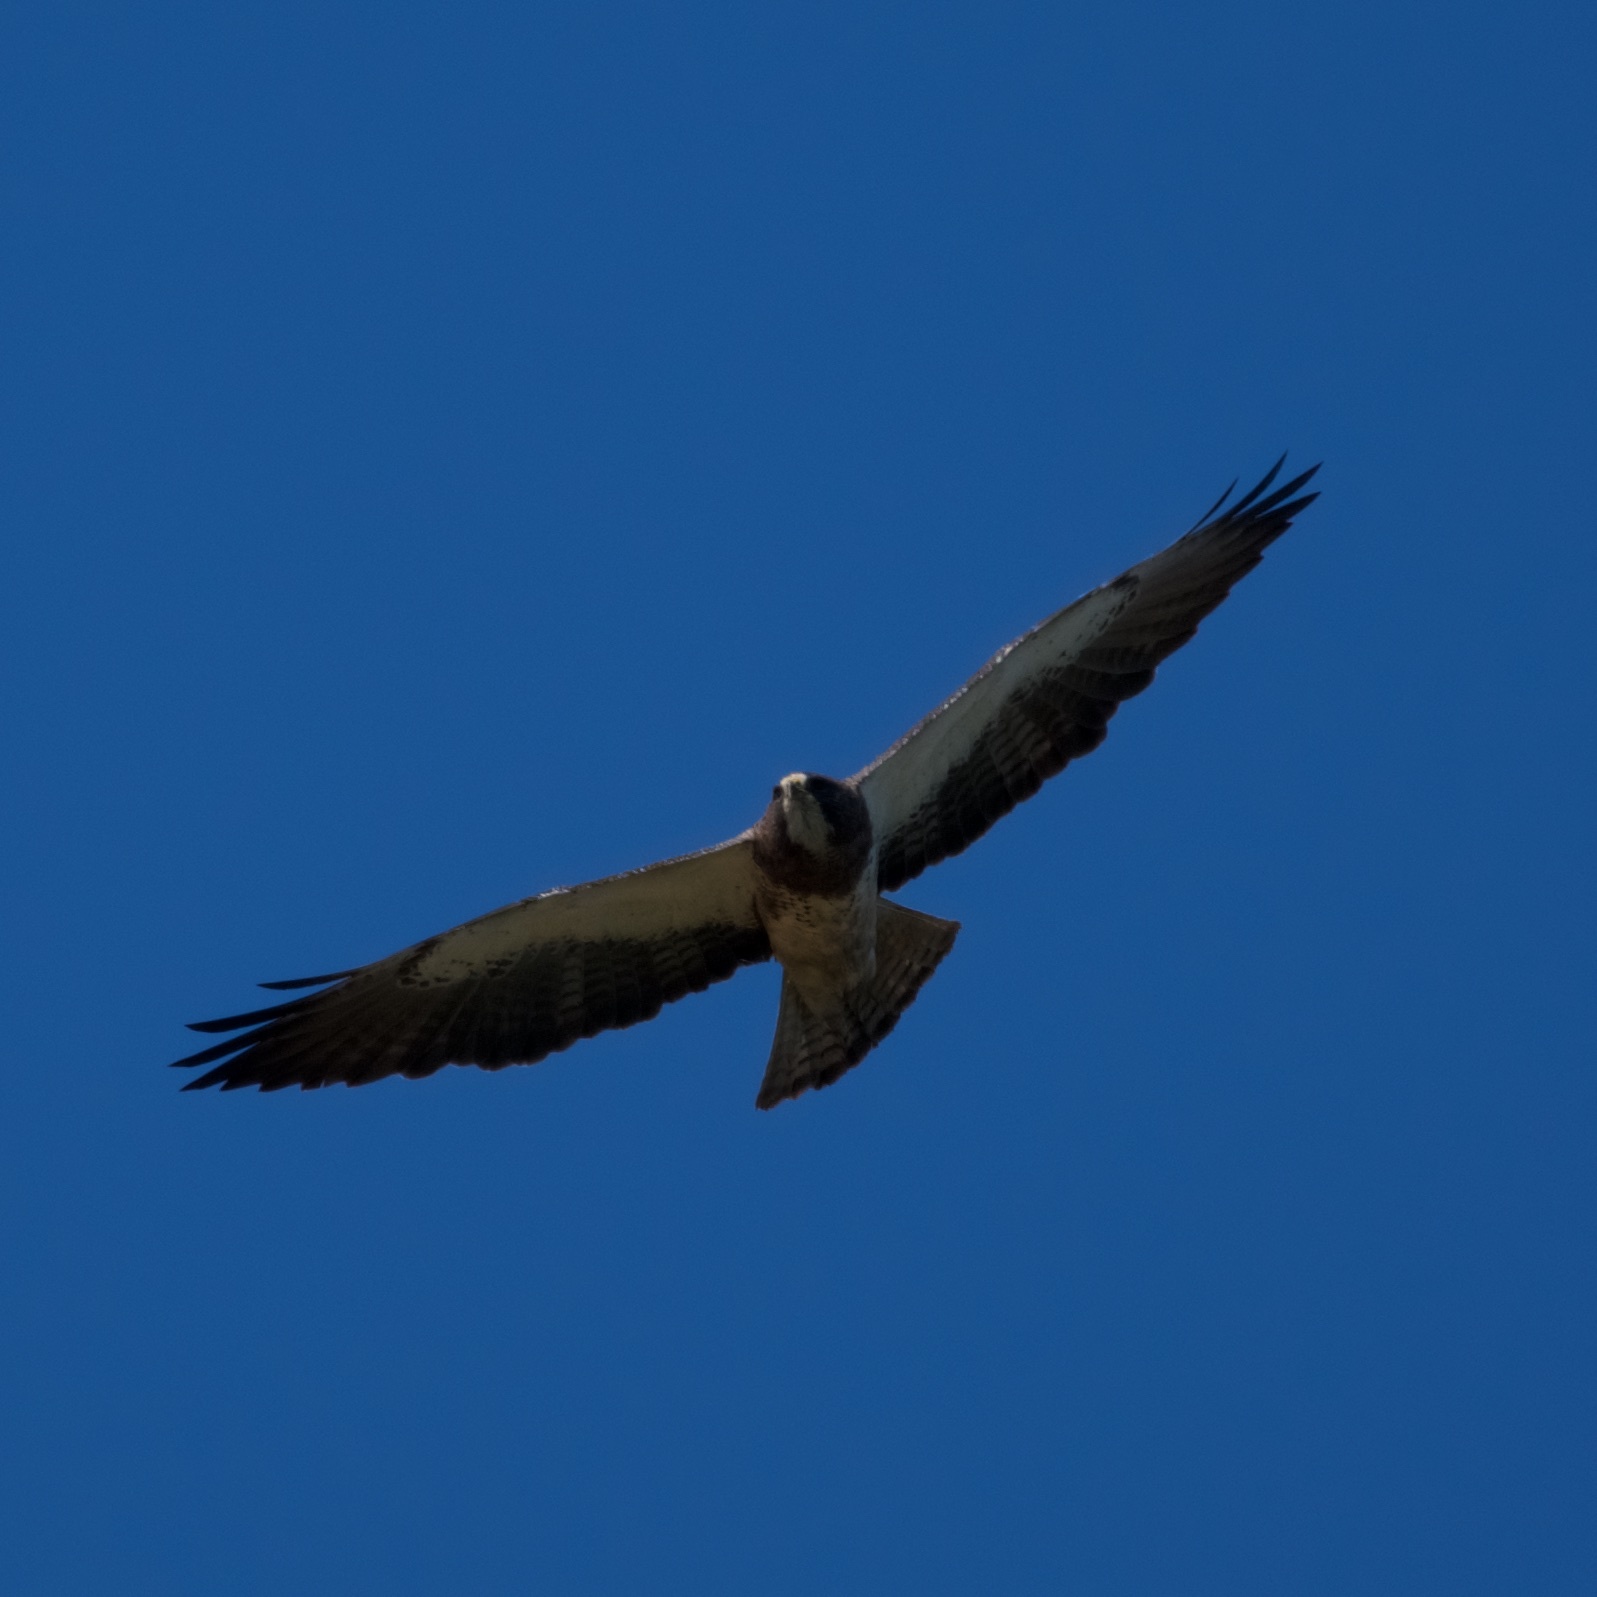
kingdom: Animalia
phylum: Chordata
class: Aves
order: Accipitriformes
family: Accipitridae
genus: Buteo
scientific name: Buteo swainsoni
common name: Swainson's hawk
